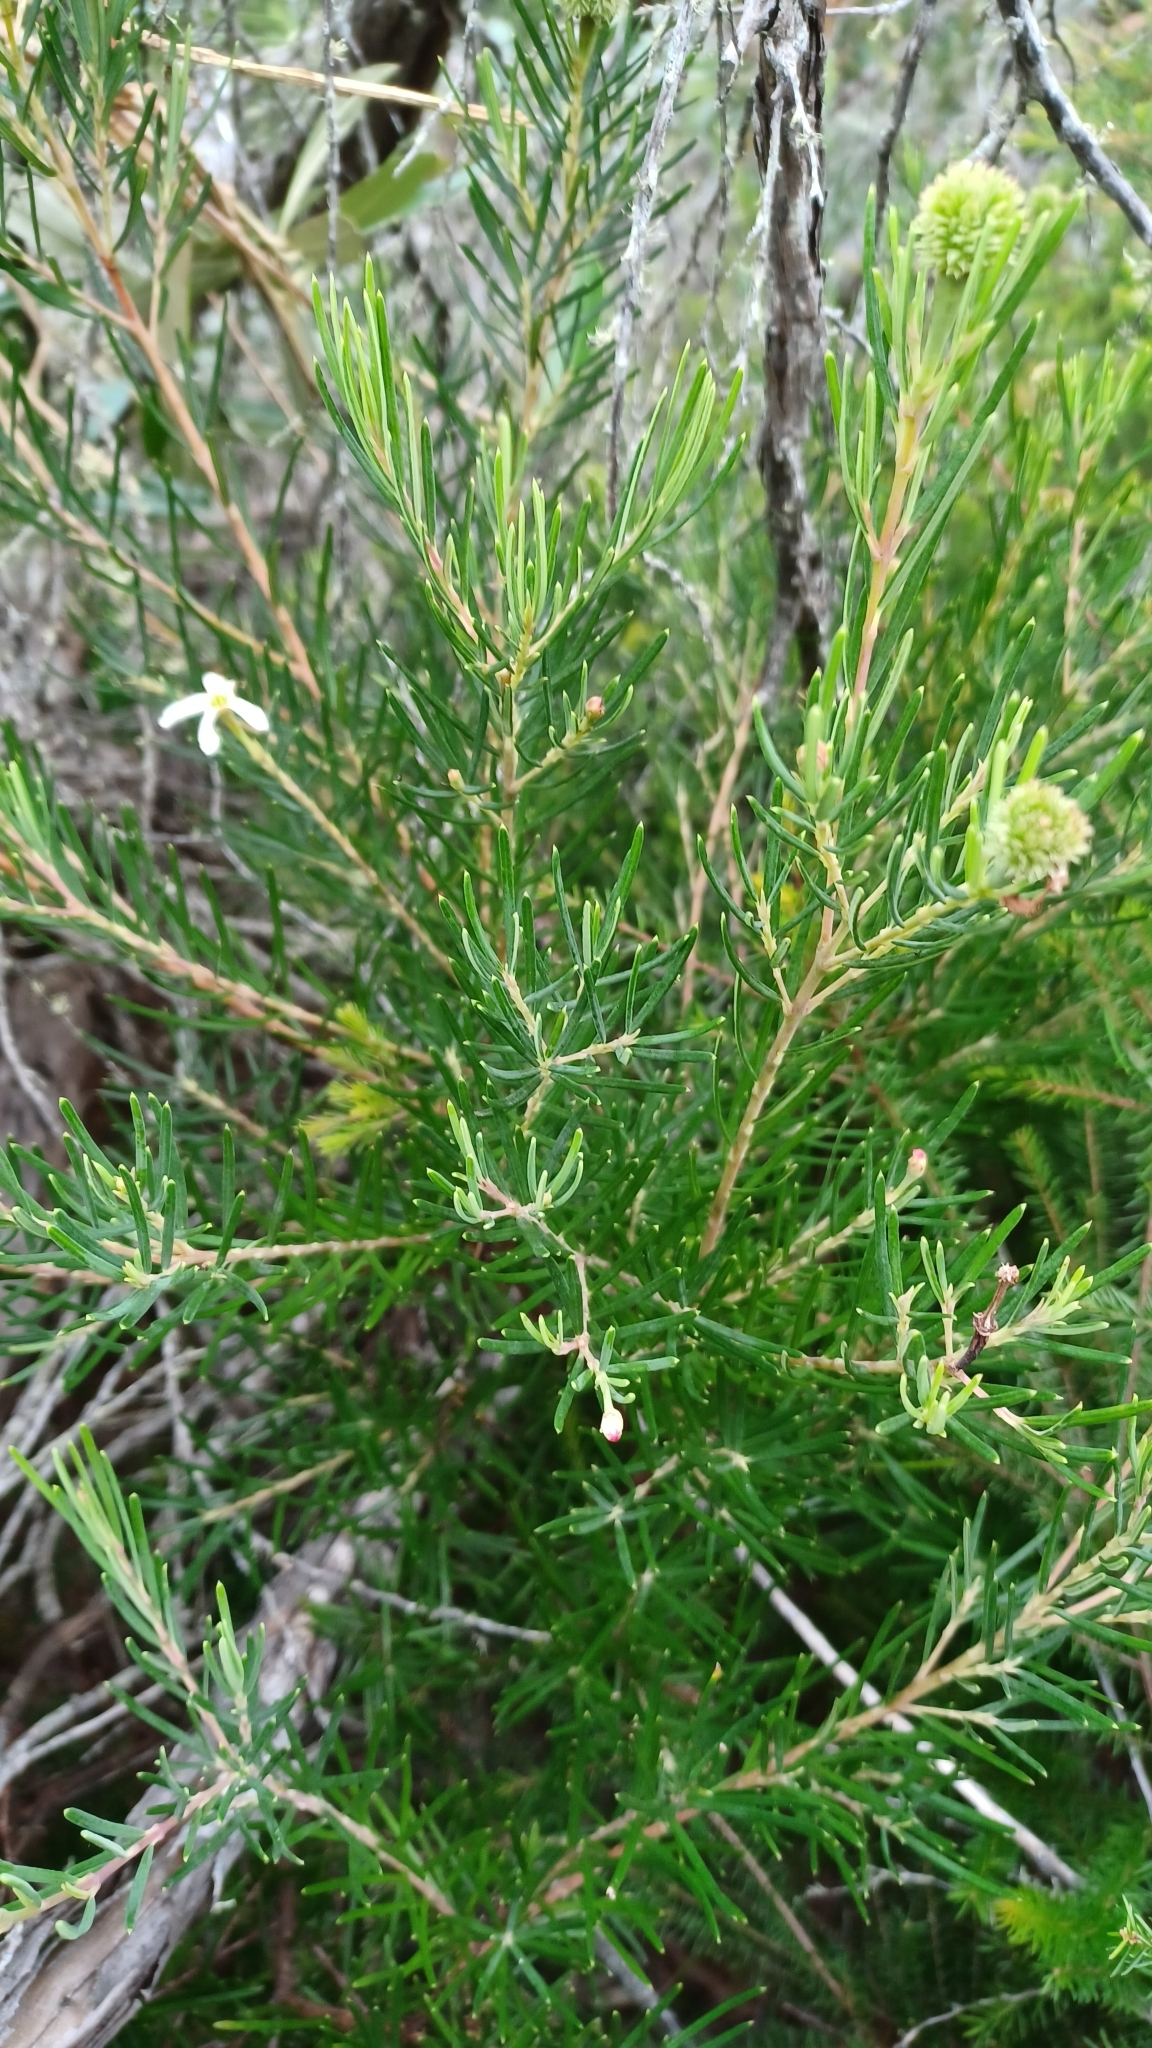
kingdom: Plantae
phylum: Tracheophyta
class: Magnoliopsida
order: Malpighiales
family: Euphorbiaceae
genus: Ricinocarpos
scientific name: Ricinocarpos pinifolius
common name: Weddingbush
